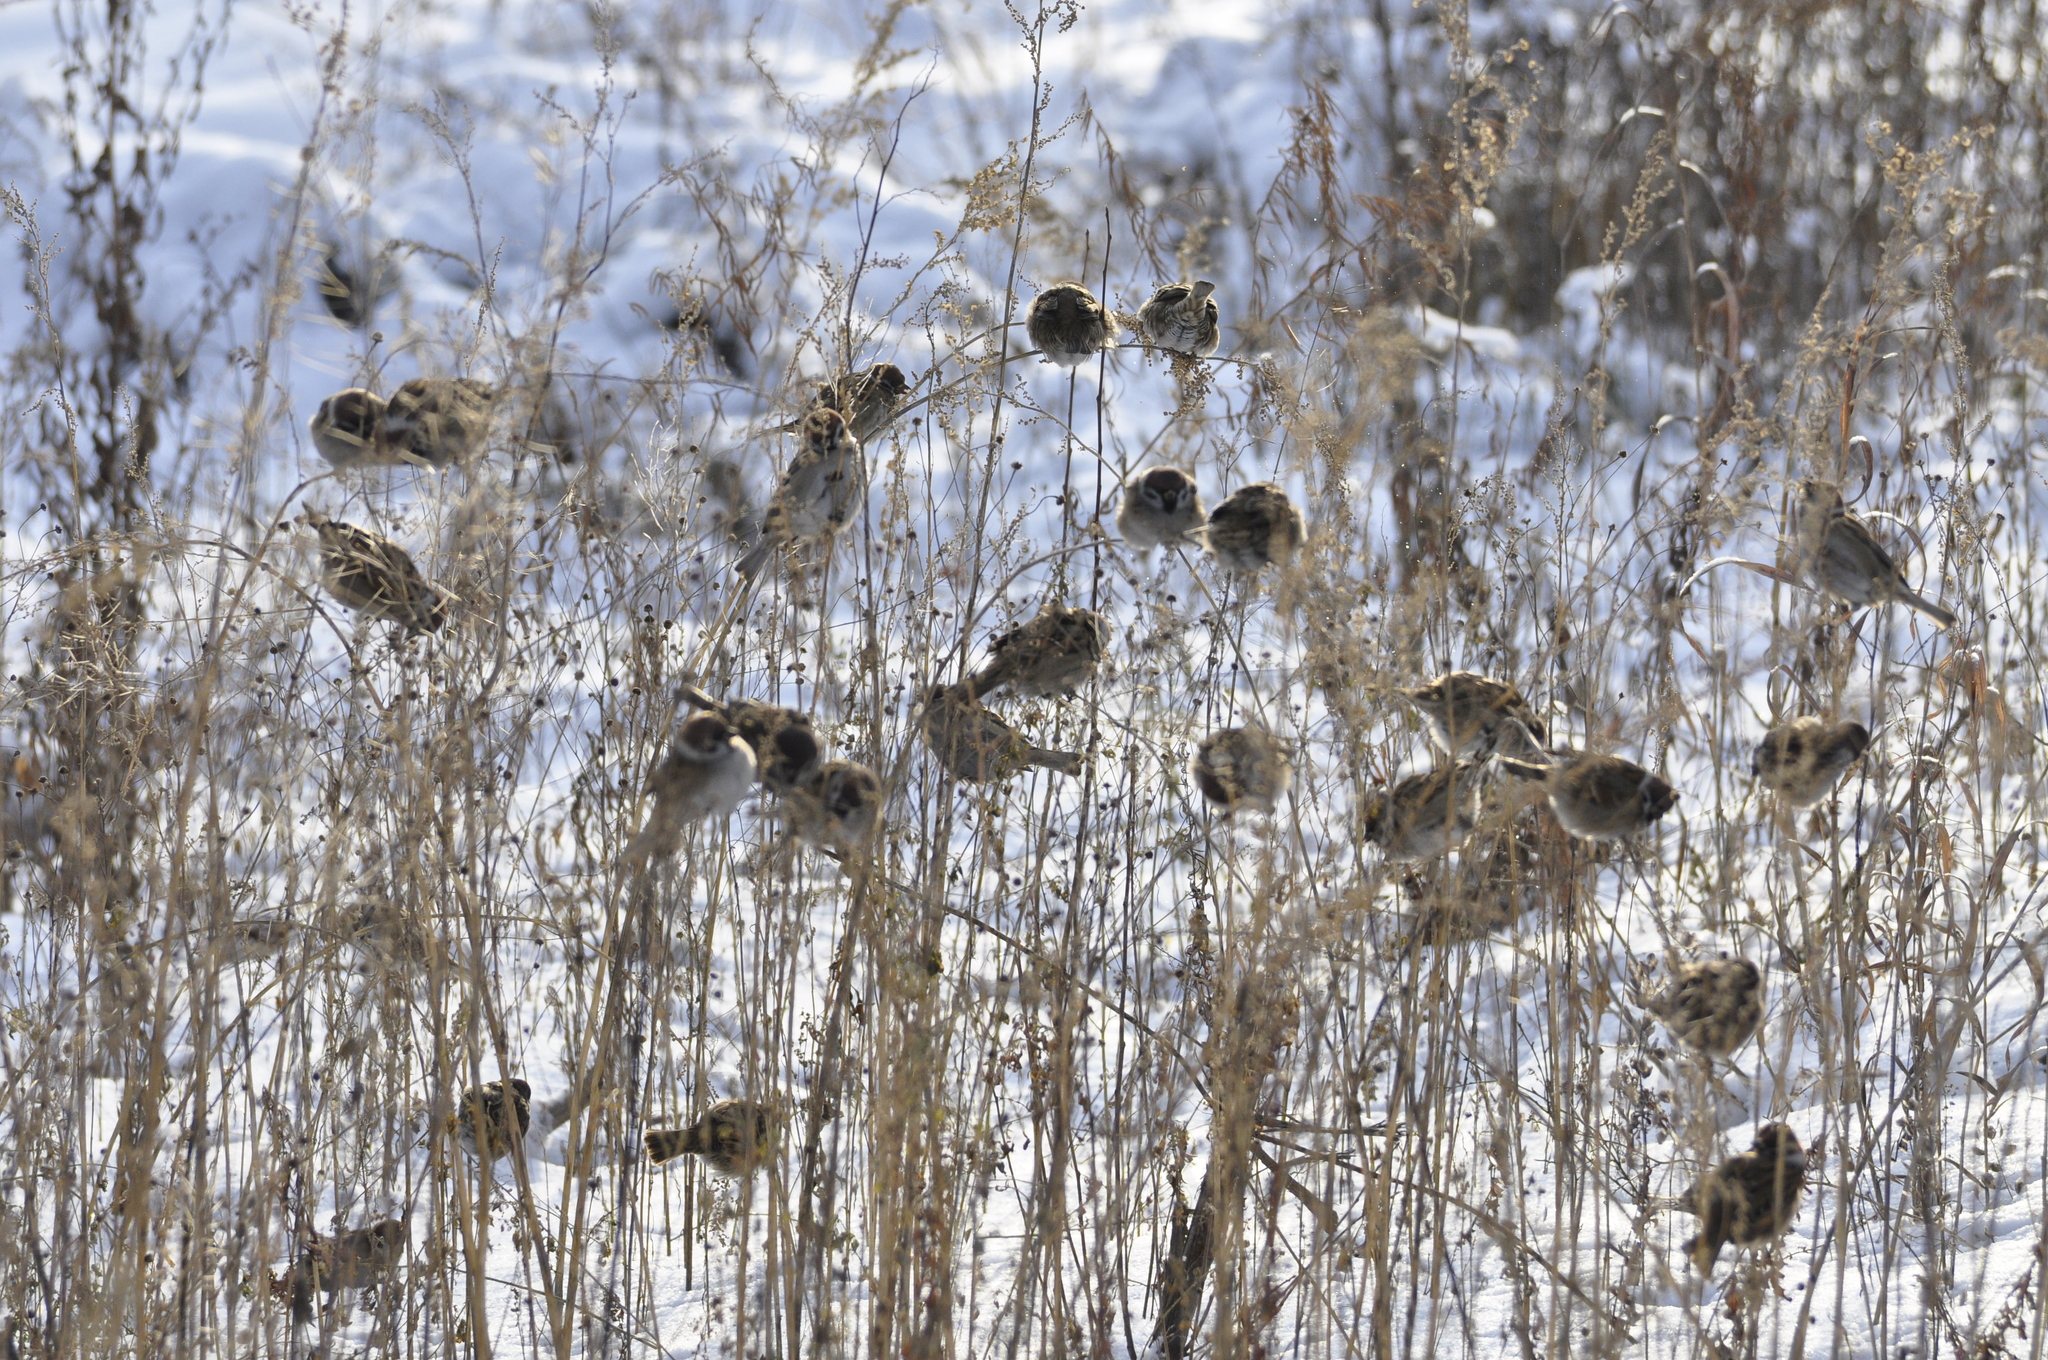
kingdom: Animalia
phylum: Chordata
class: Aves
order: Passeriformes
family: Passeridae
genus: Passer
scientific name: Passer montanus
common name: Eurasian tree sparrow
